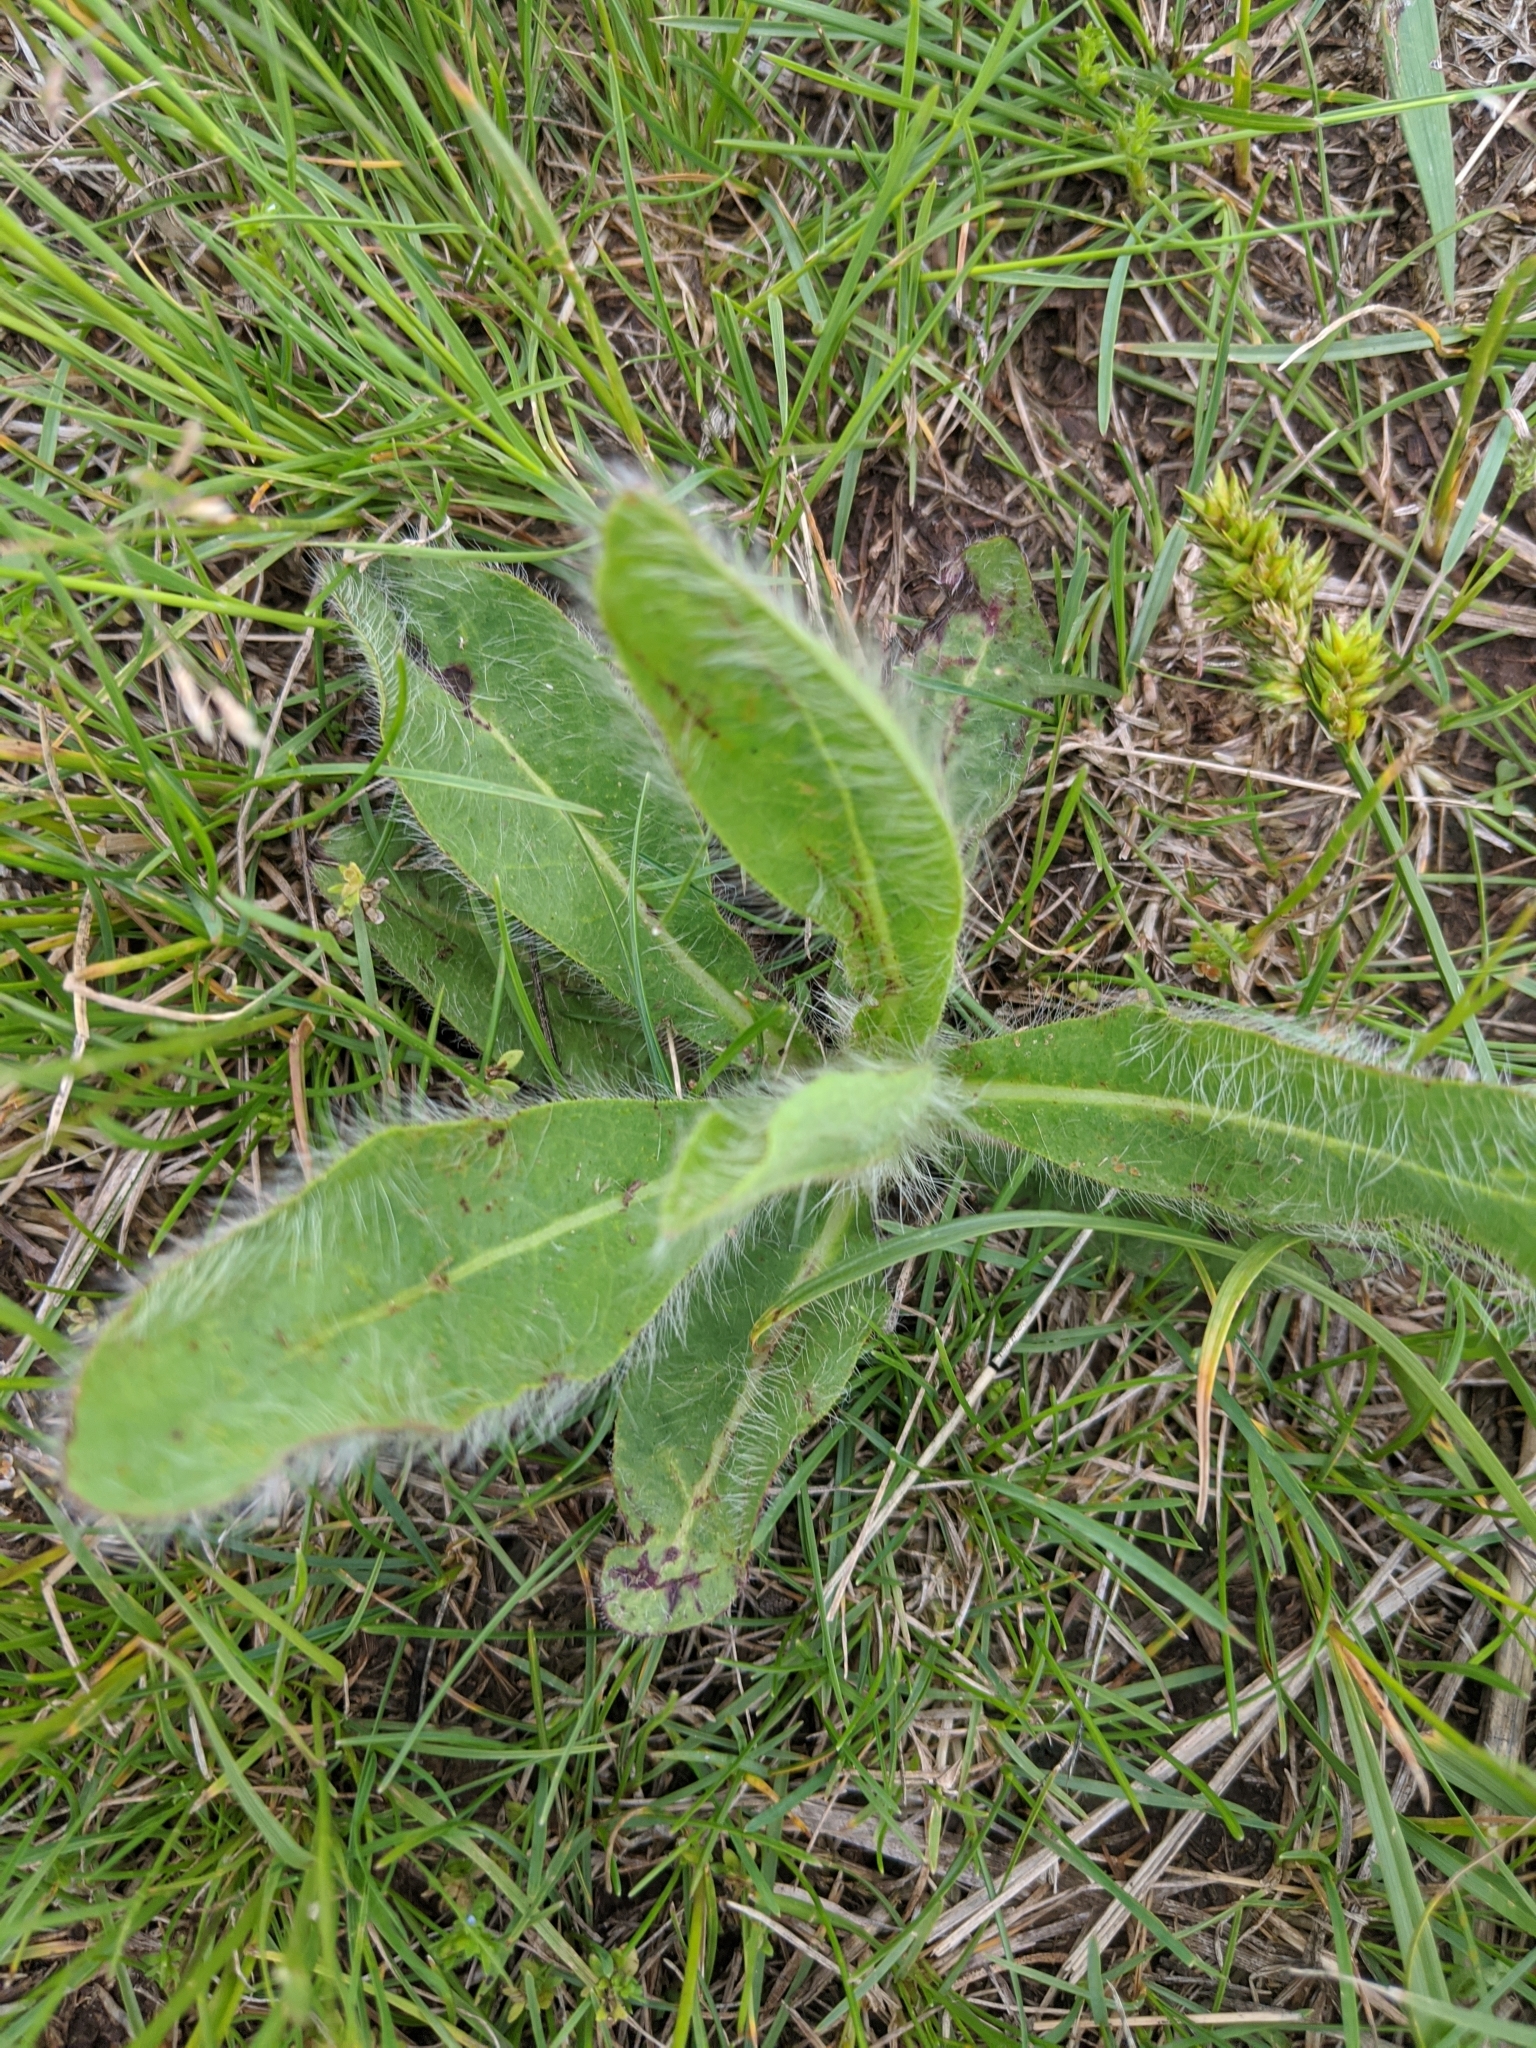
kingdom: Plantae
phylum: Tracheophyta
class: Magnoliopsida
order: Asterales
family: Asteraceae
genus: Hieracium
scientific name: Hieracium longipilum
